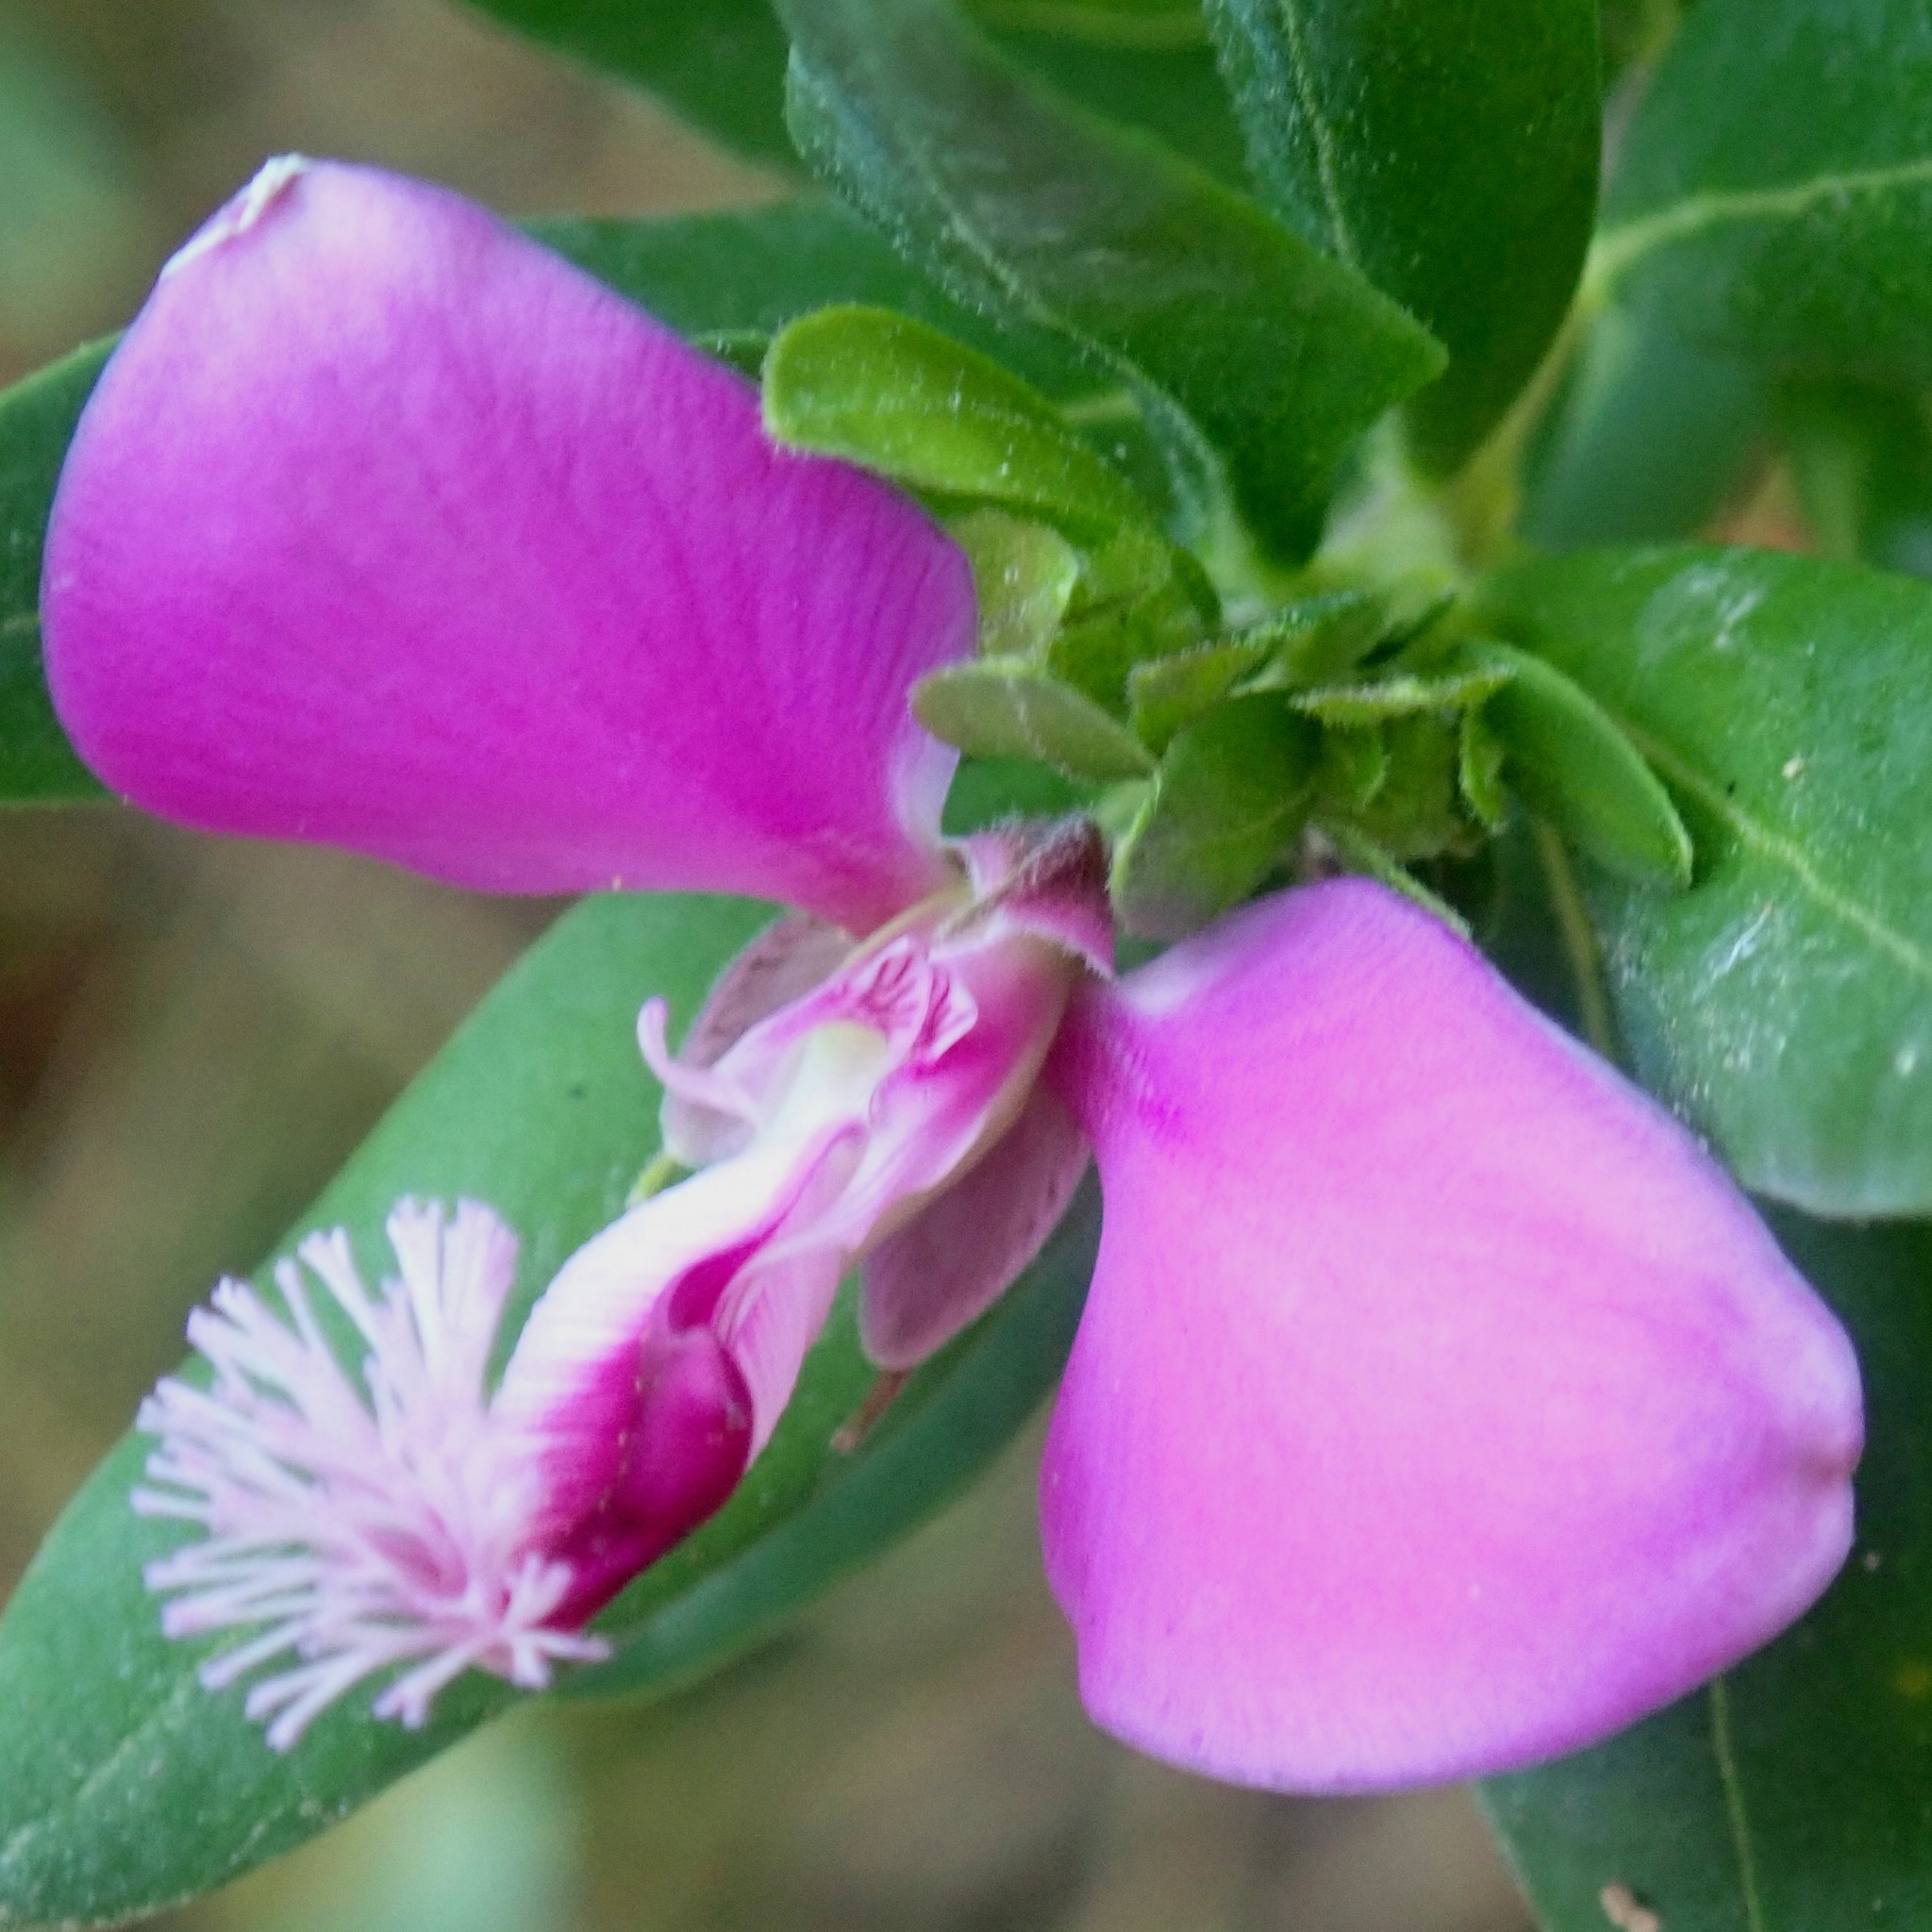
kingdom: Plantae
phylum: Tracheophyta
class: Magnoliopsida
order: Fabales
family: Polygalaceae
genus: Polygala
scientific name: Polygala myrtifolia
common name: Myrtle-leaf milkwort
